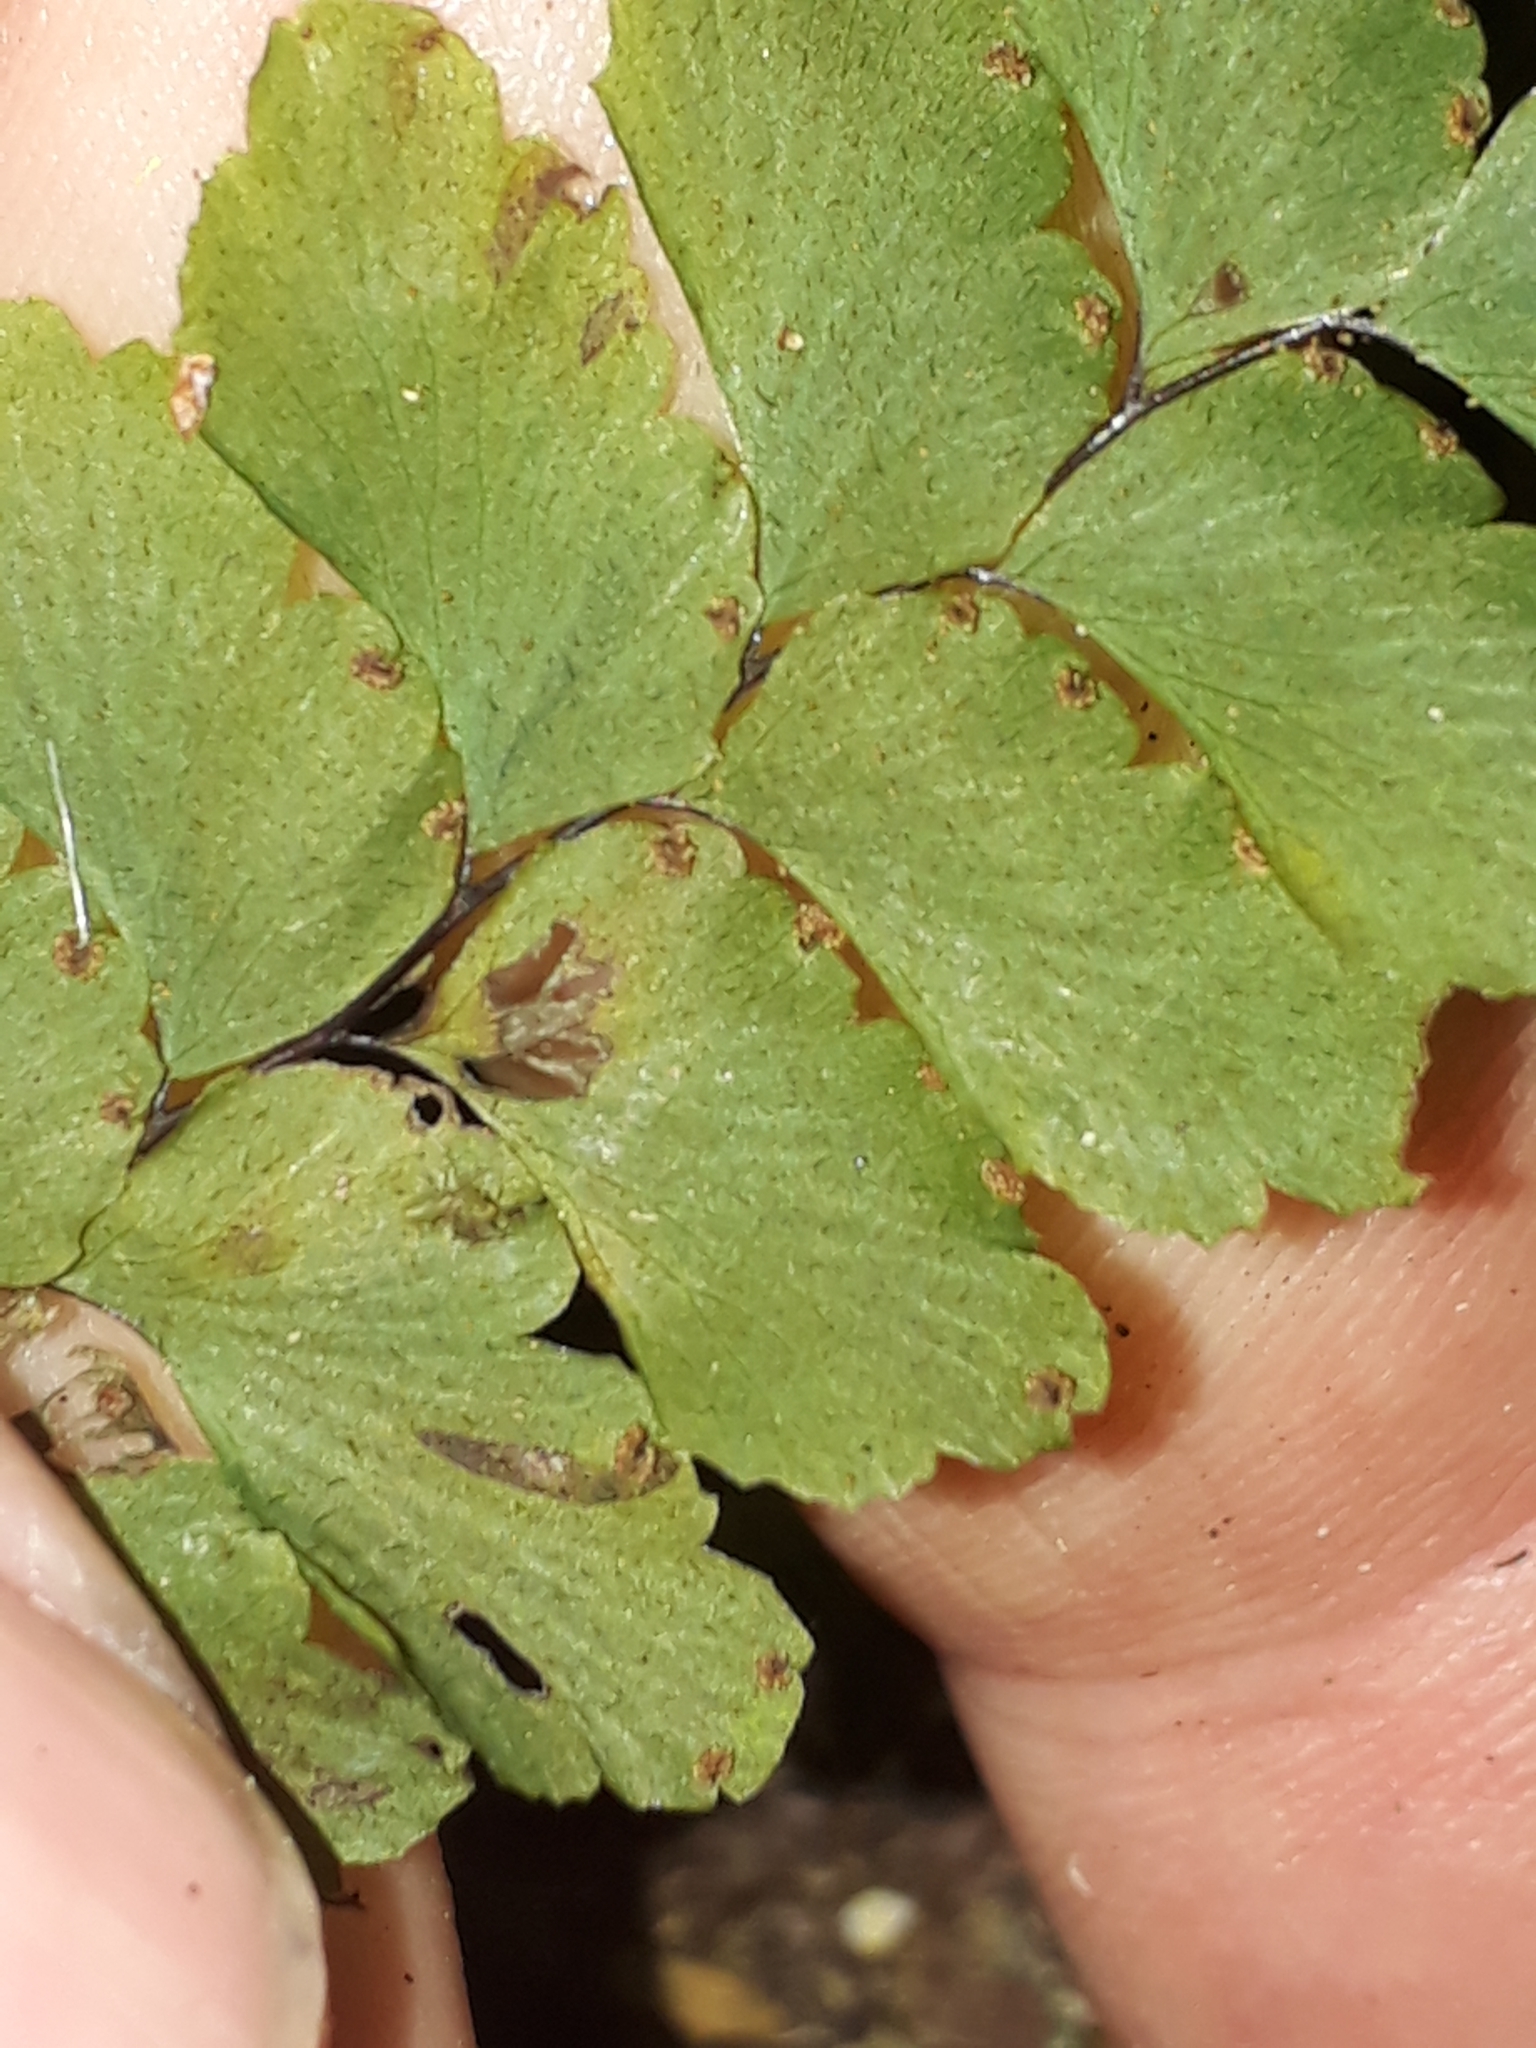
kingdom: Plantae
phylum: Tracheophyta
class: Polypodiopsida
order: Polypodiales
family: Pteridaceae
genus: Adiantum
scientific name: Adiantum diaphanum
